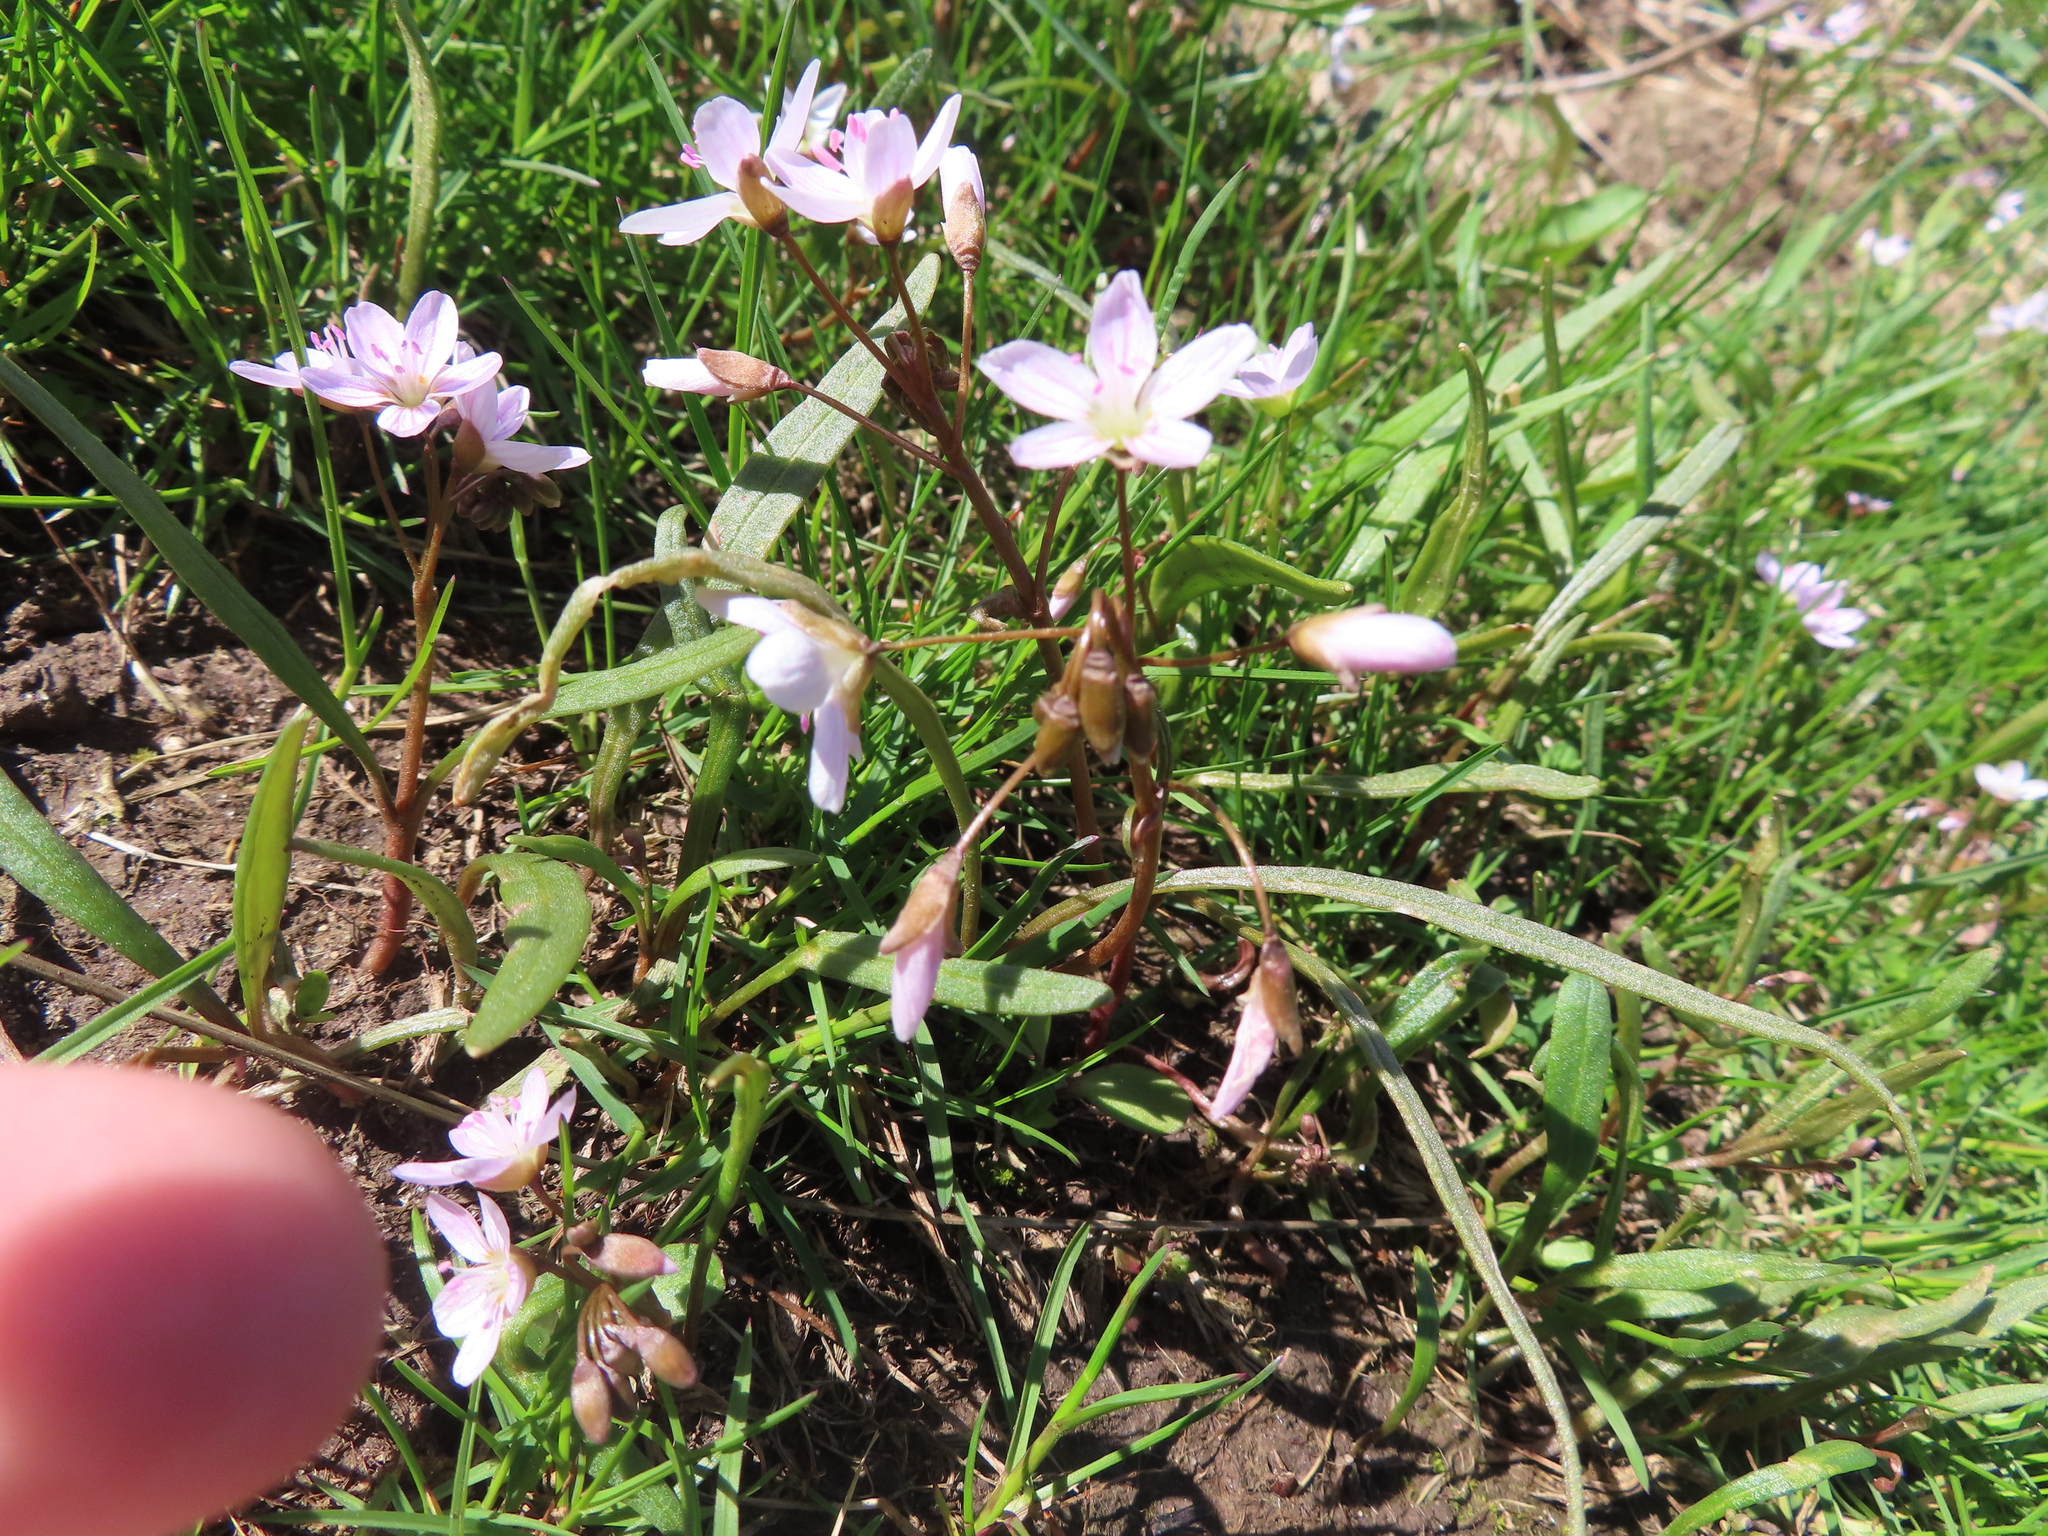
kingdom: Plantae
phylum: Tracheophyta
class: Magnoliopsida
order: Caryophyllales
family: Montiaceae
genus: Claytonia
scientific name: Claytonia virginica
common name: Virginia springbeauty
